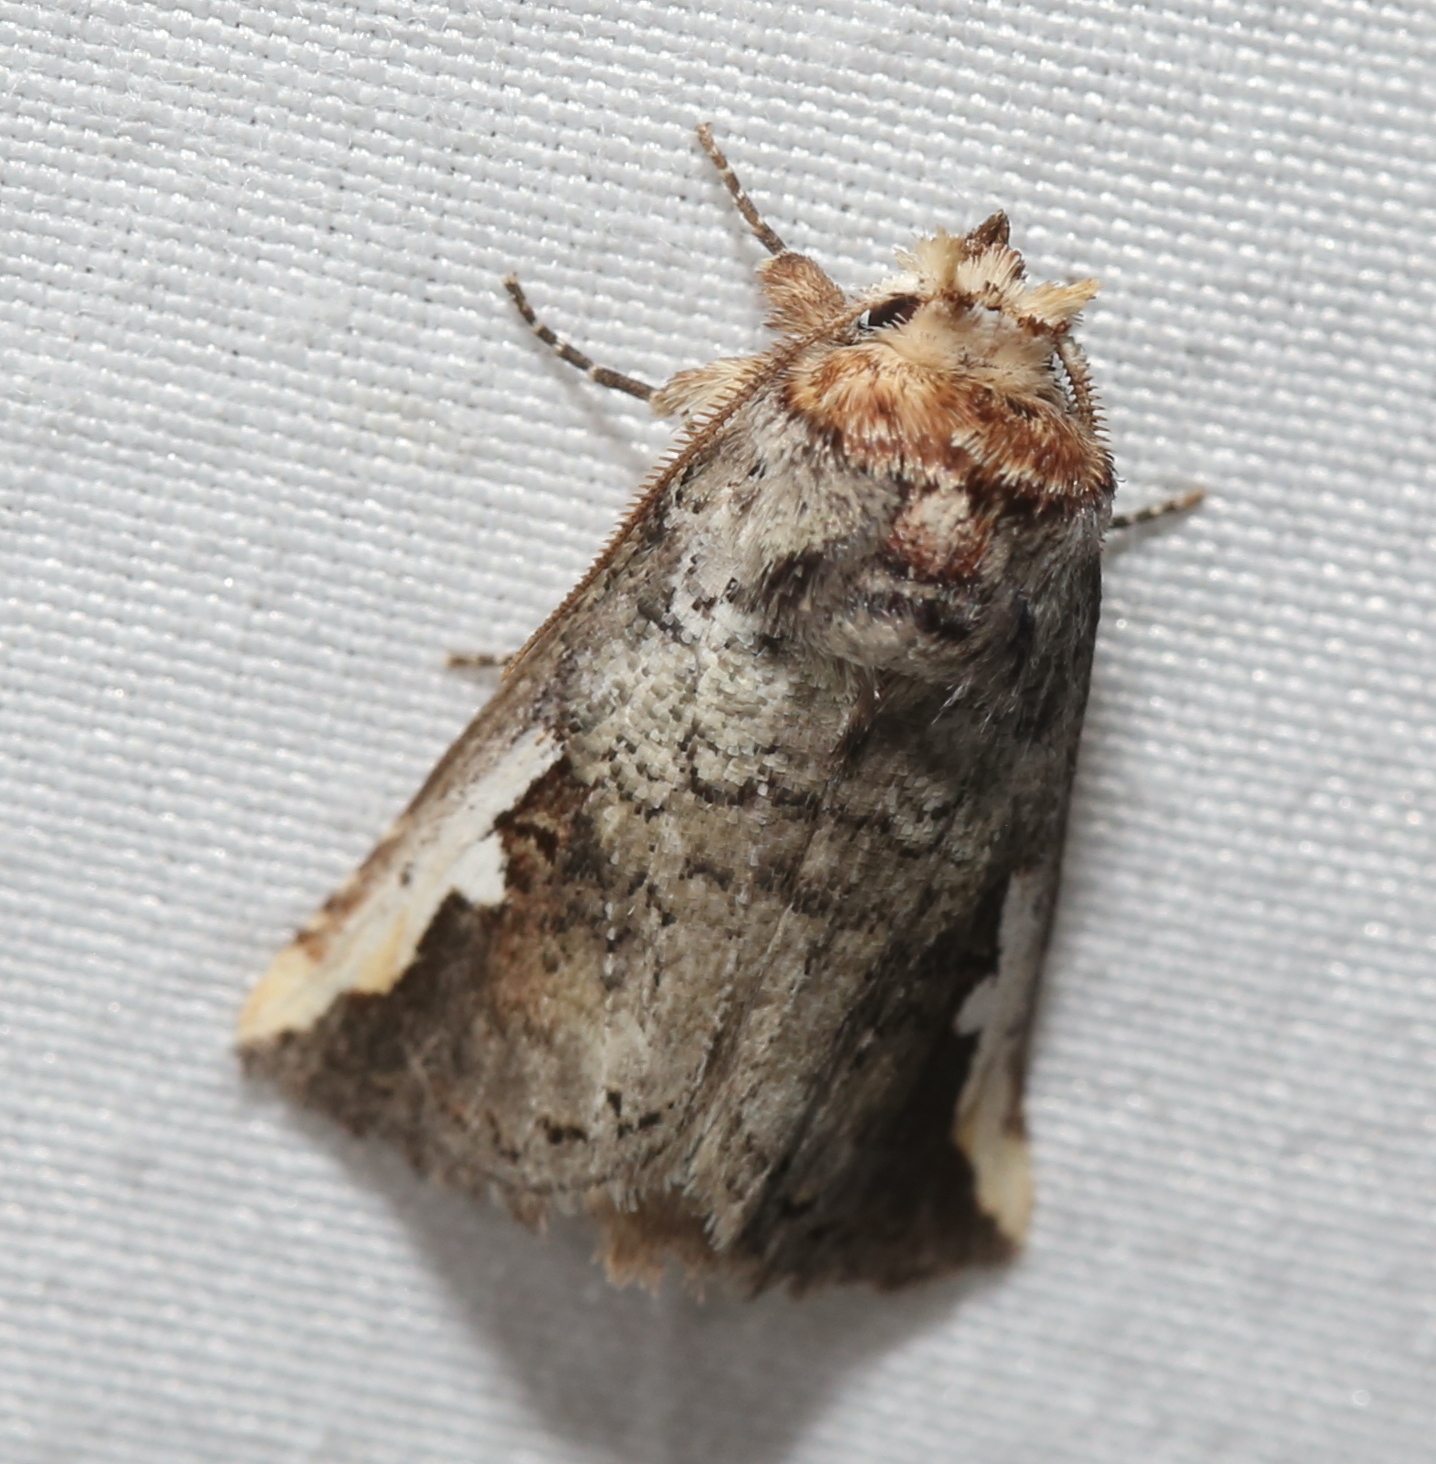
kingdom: Animalia
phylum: Arthropoda
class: Insecta
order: Lepidoptera
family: Notodontidae
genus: Symmerista
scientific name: Symmerista albifrons
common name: White-headed prominent
